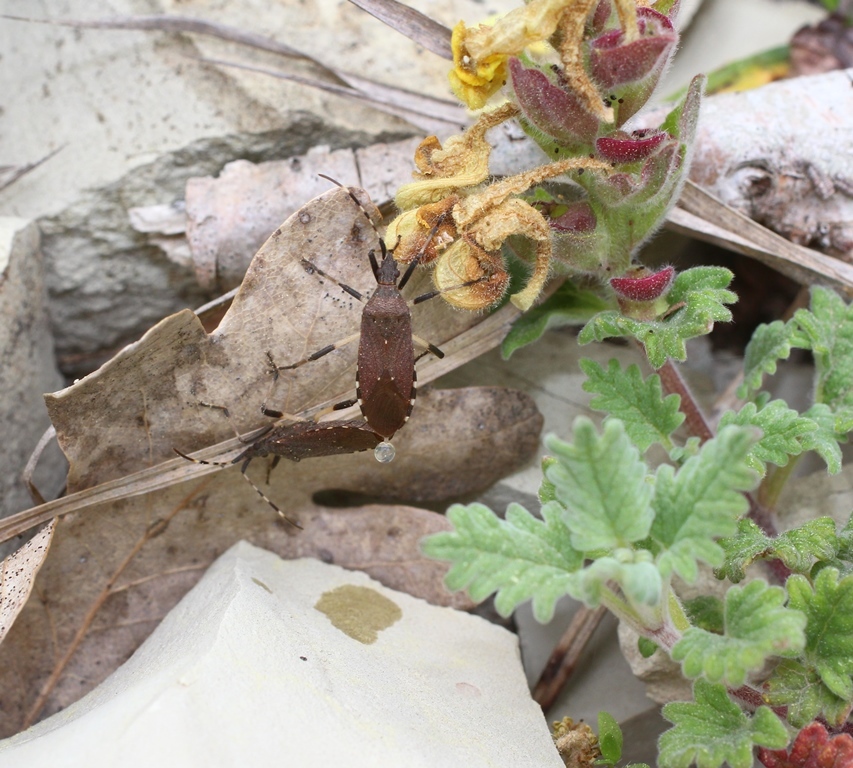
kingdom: Animalia
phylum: Arthropoda
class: Insecta
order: Hemiptera
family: Stenocephalidae
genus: Dicranocephalus
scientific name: Dicranocephalus agilis
